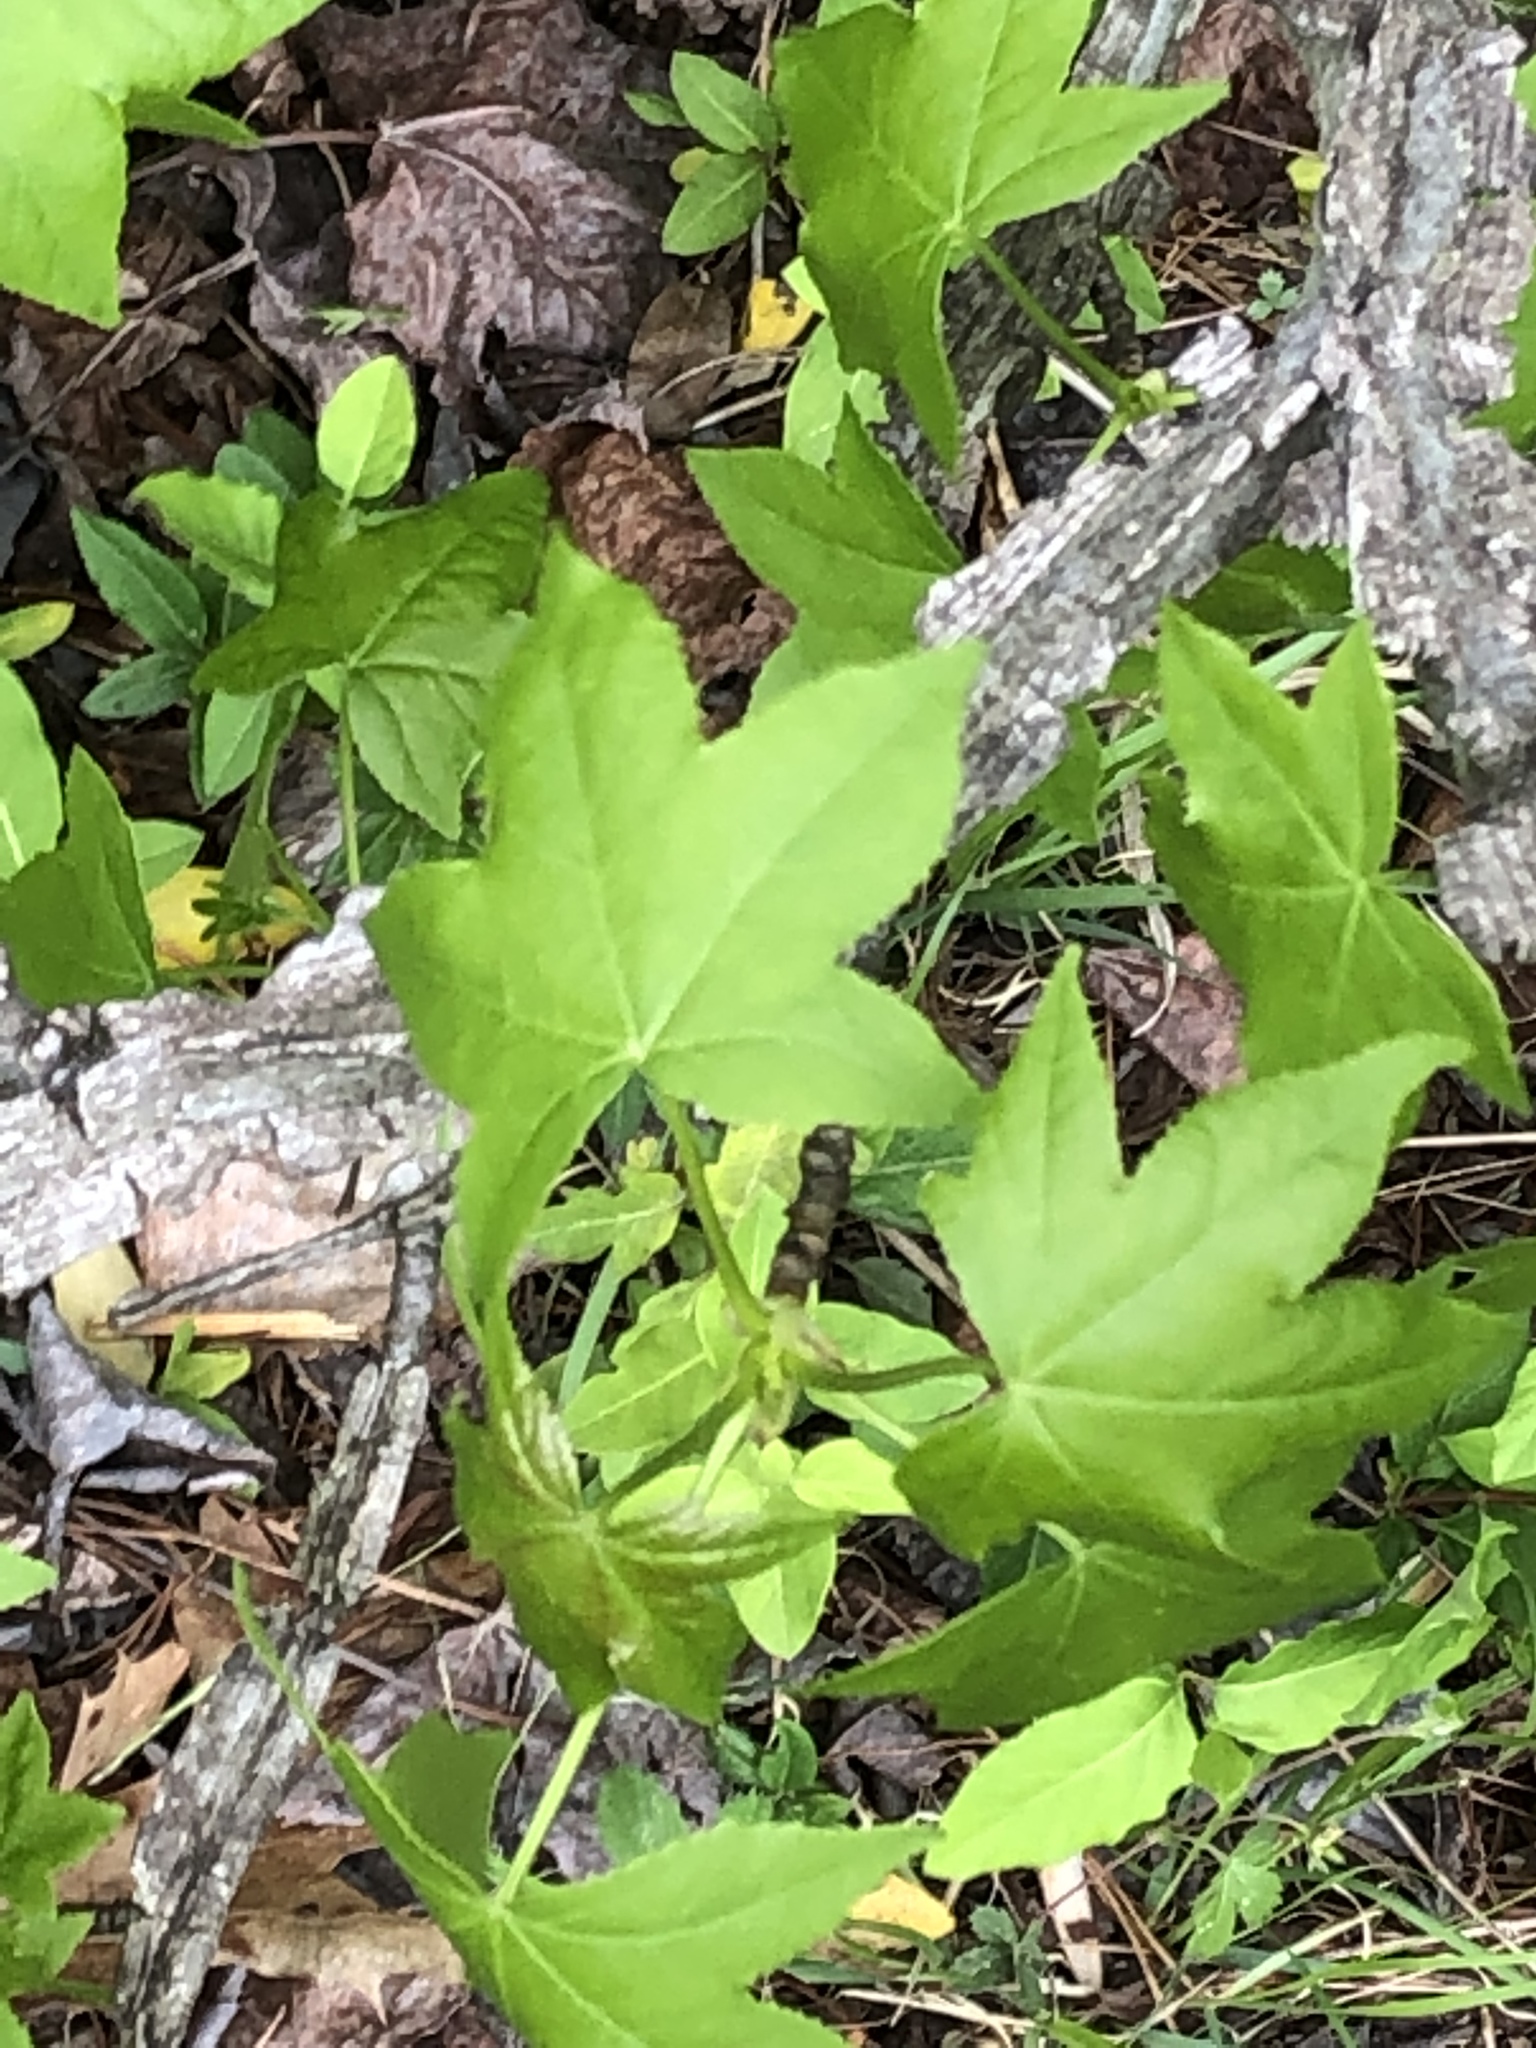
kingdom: Plantae
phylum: Tracheophyta
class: Magnoliopsida
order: Saxifragales
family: Altingiaceae
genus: Liquidambar
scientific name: Liquidambar styraciflua
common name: Sweet gum
